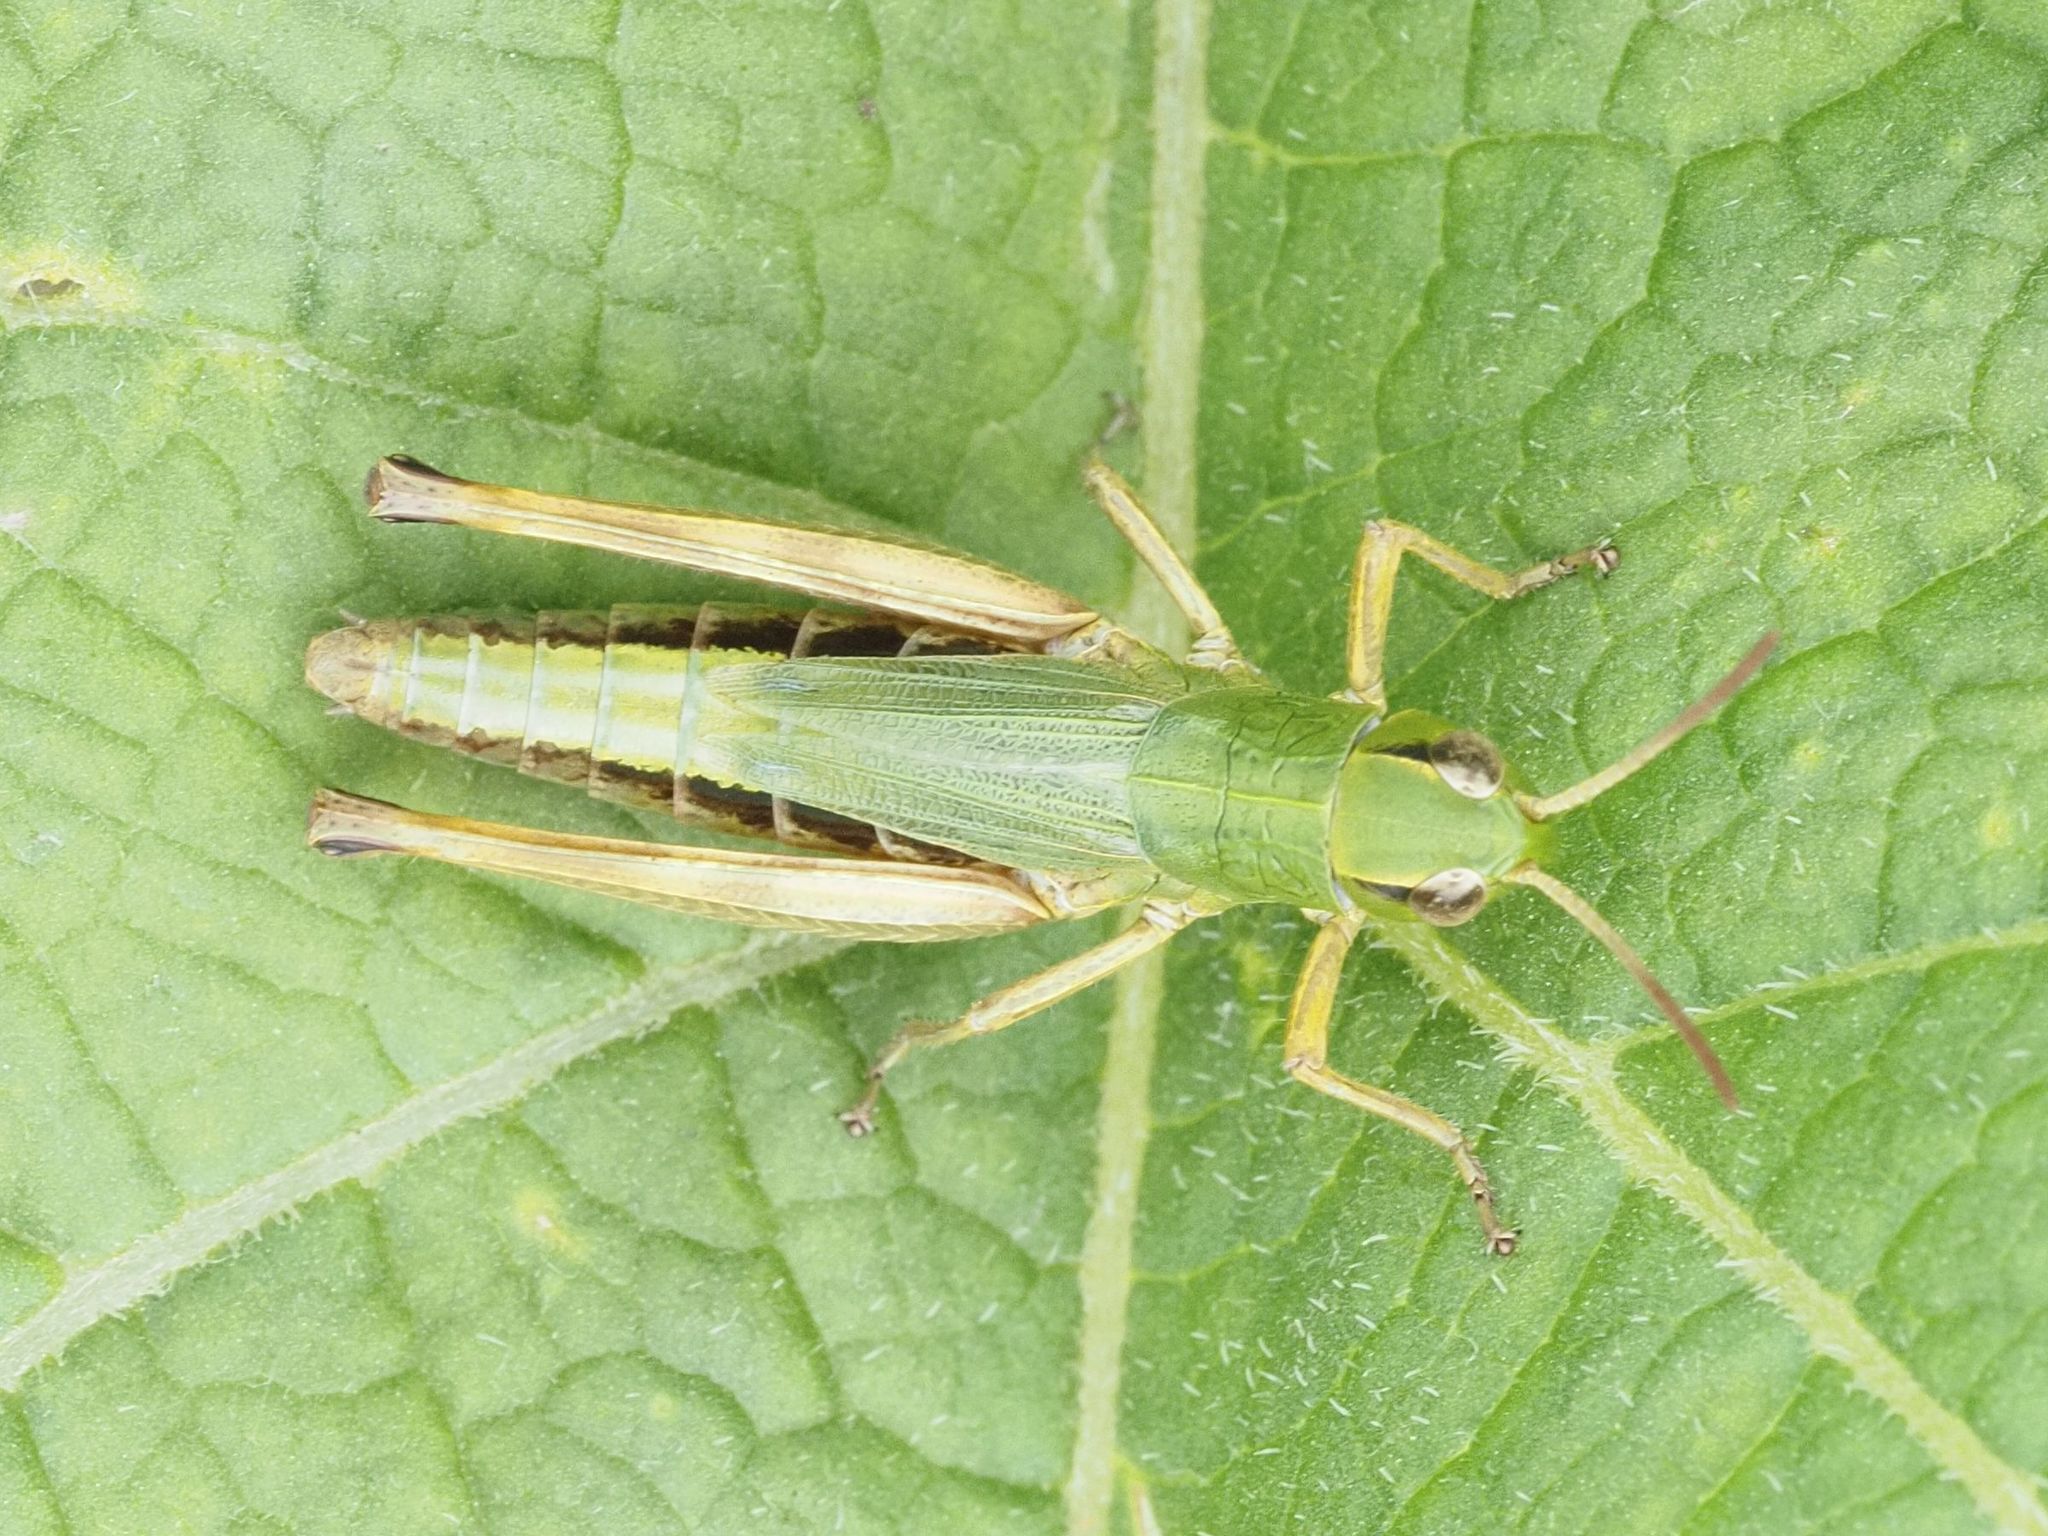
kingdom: Animalia
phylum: Arthropoda
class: Insecta
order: Orthoptera
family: Acrididae
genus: Pseudochorthippus
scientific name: Pseudochorthippus parallelus
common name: Meadow grasshopper
